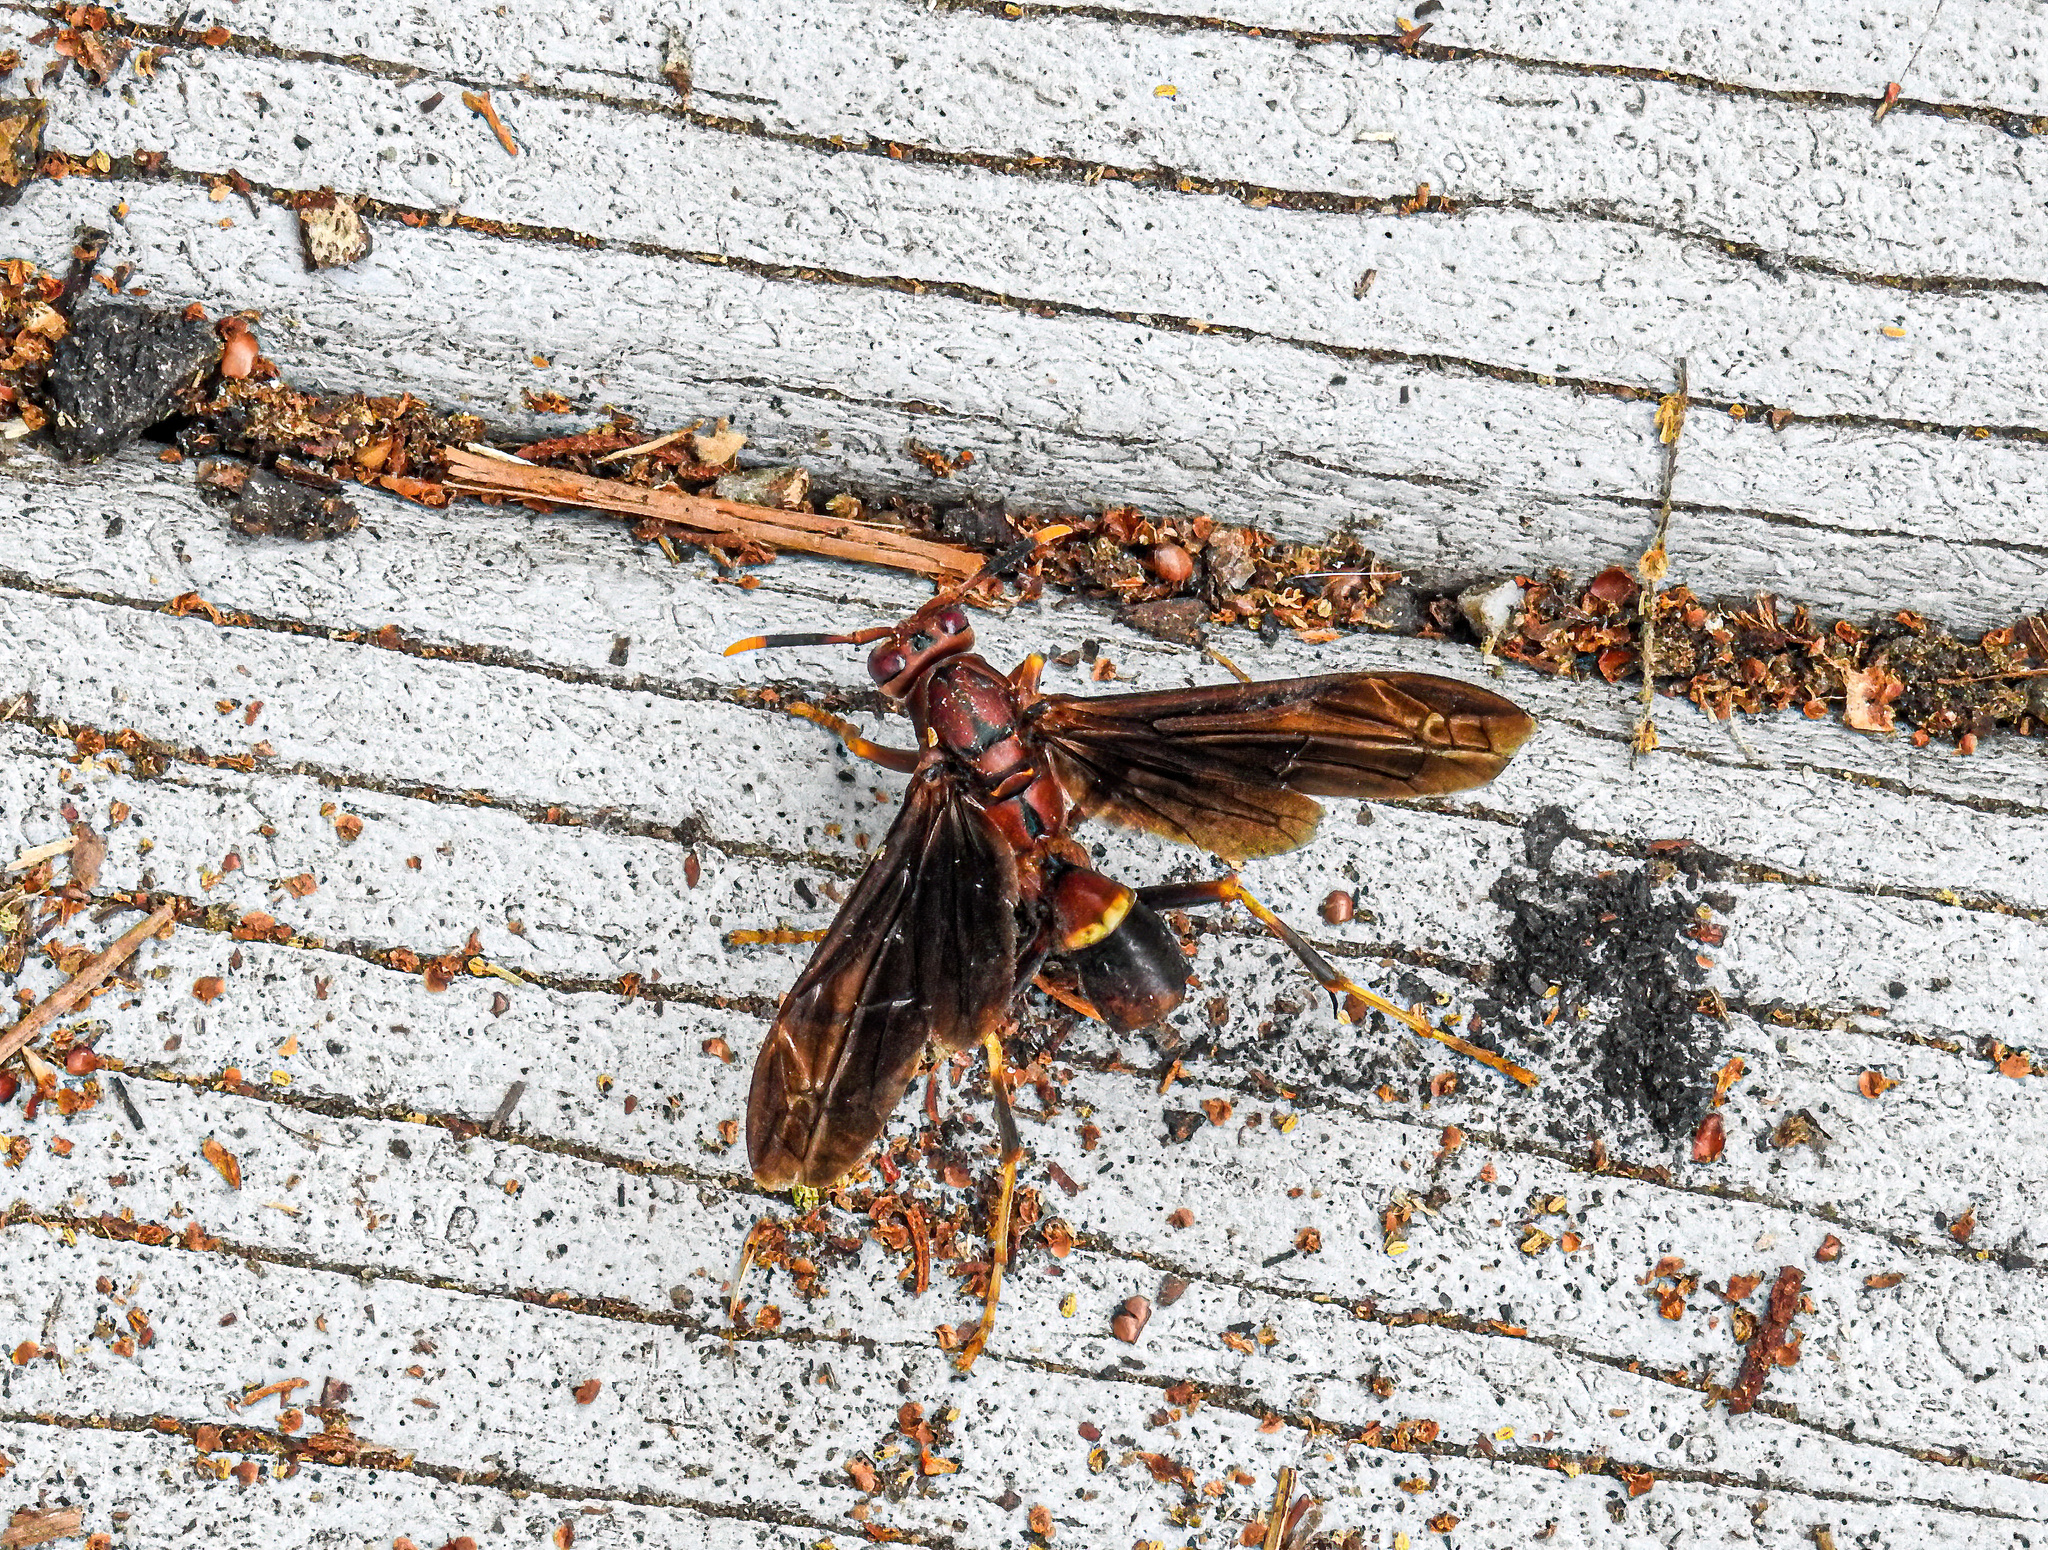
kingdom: Animalia
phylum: Arthropoda
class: Insecta
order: Hymenoptera
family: Eumenidae
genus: Polistes
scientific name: Polistes annularis
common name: Ringed paper wasp
